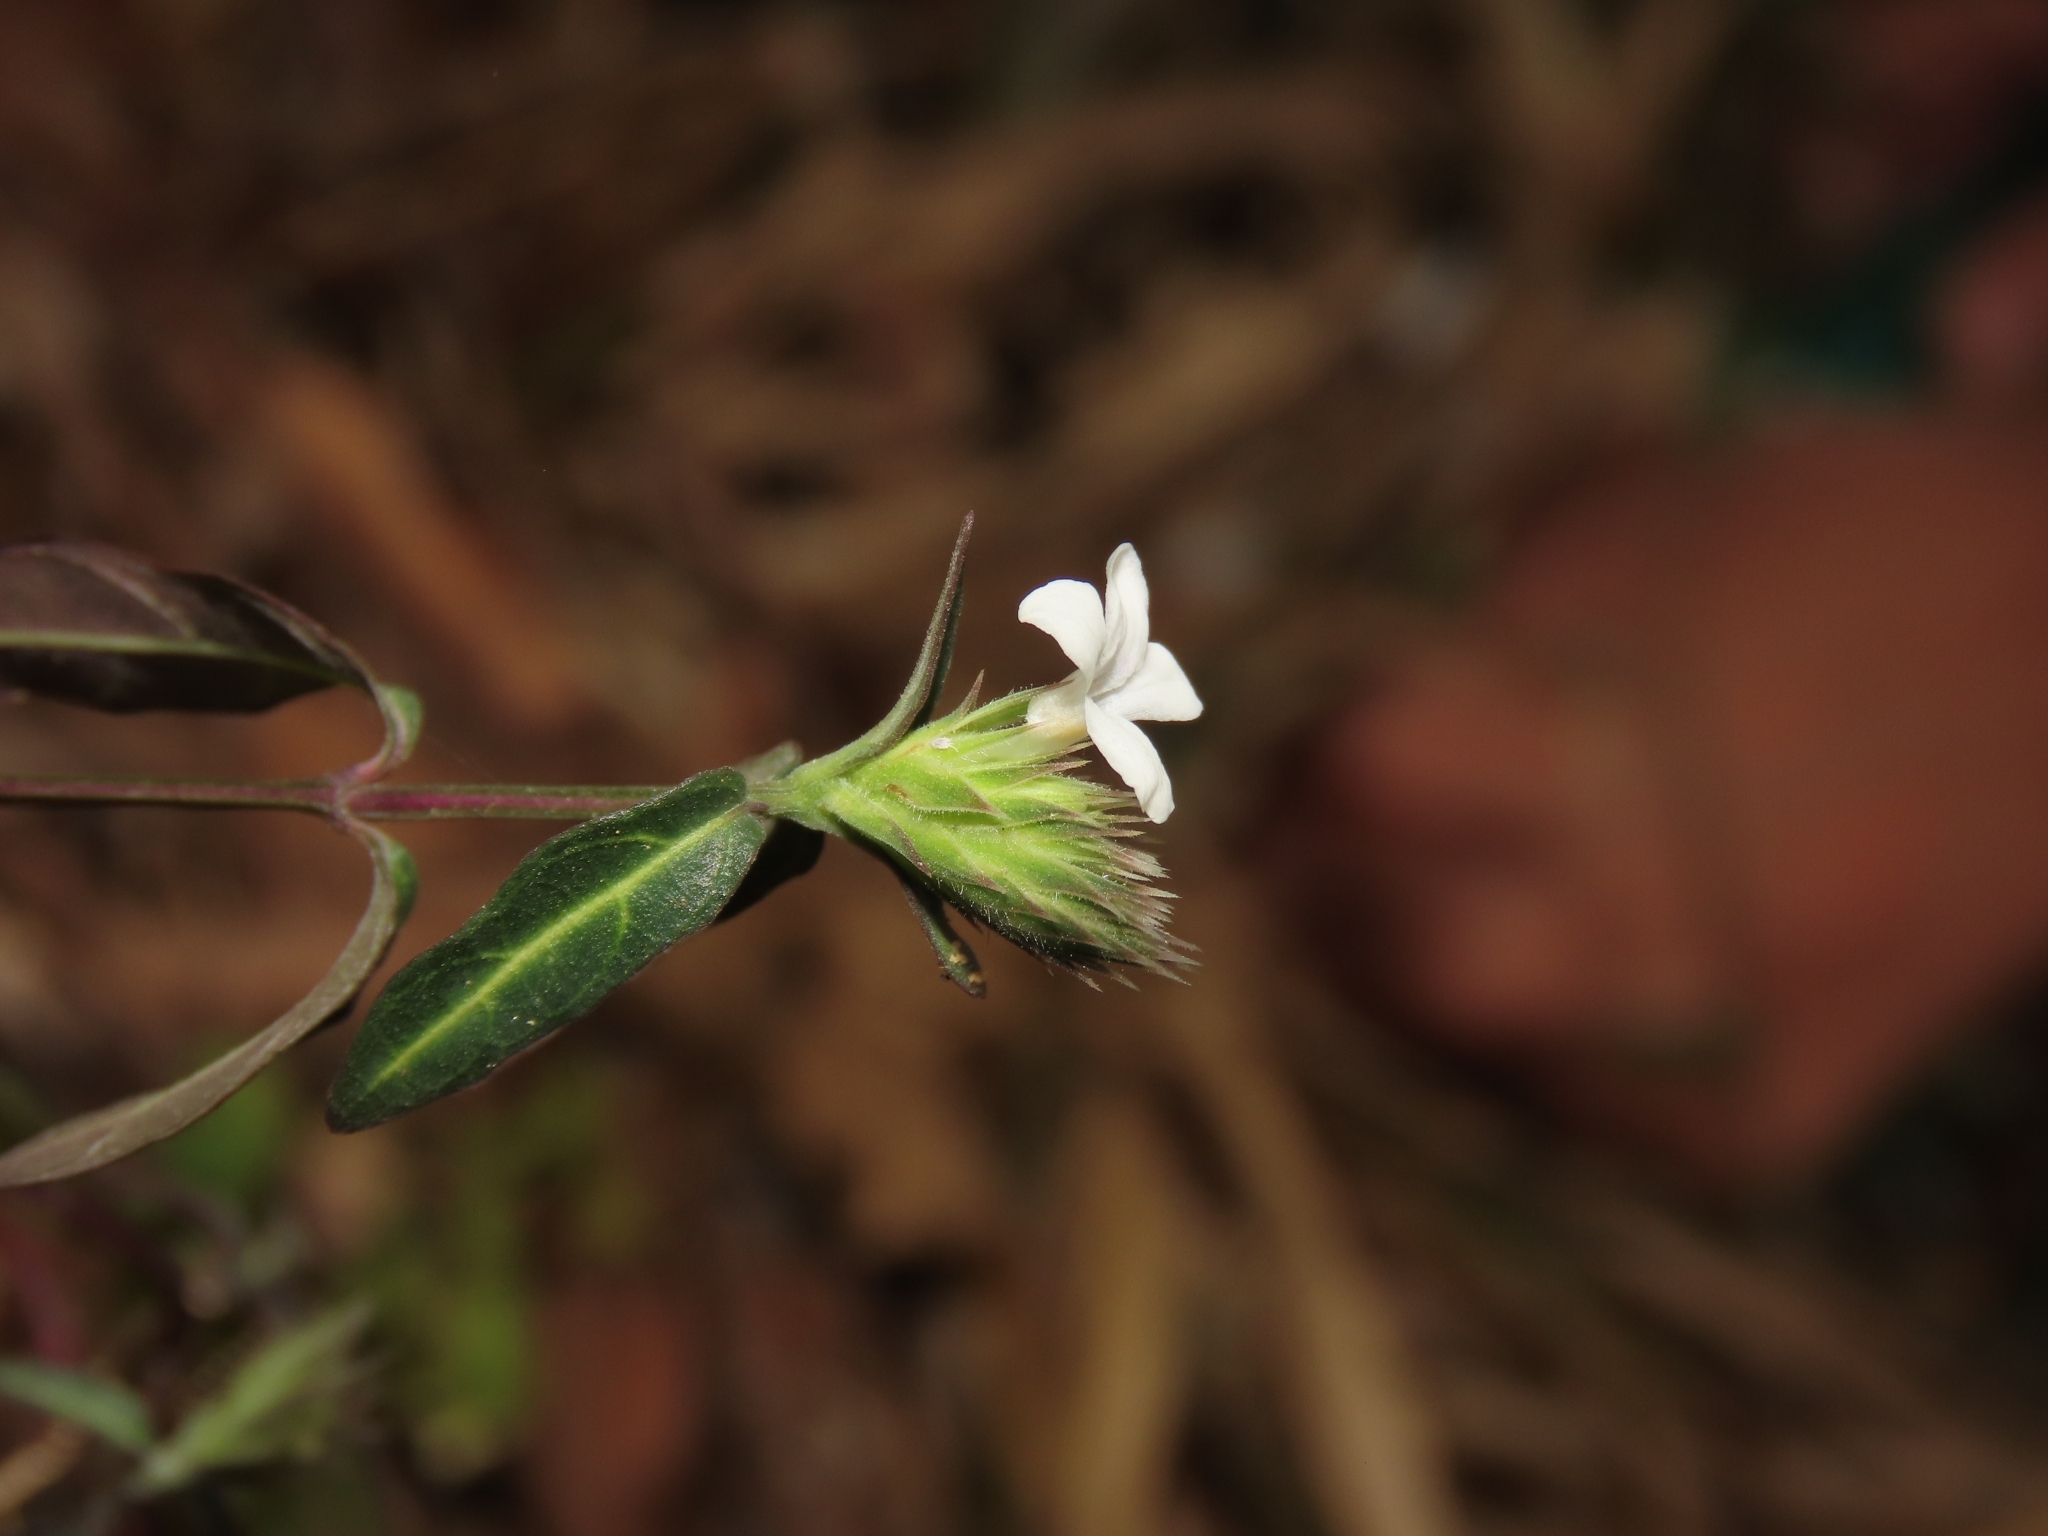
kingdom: Plantae
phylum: Tracheophyta
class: Magnoliopsida
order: Lamiales
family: Acanthaceae
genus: Lepidagathis
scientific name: Lepidagathis formosensis
